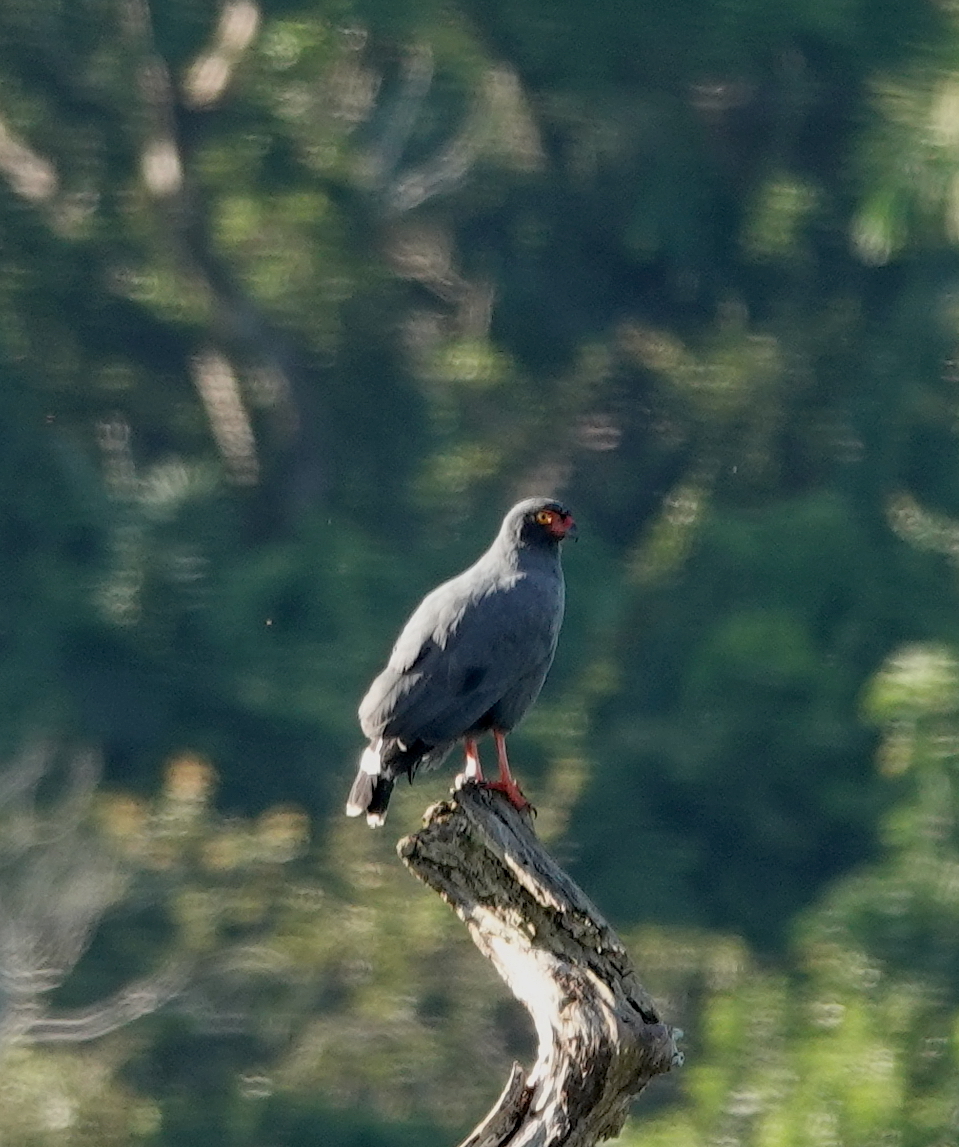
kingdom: Animalia
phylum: Chordata
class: Aves
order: Accipitriformes
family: Accipitridae
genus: Leucopternis
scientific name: Leucopternis schistaceus
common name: Slate-colored hawk
